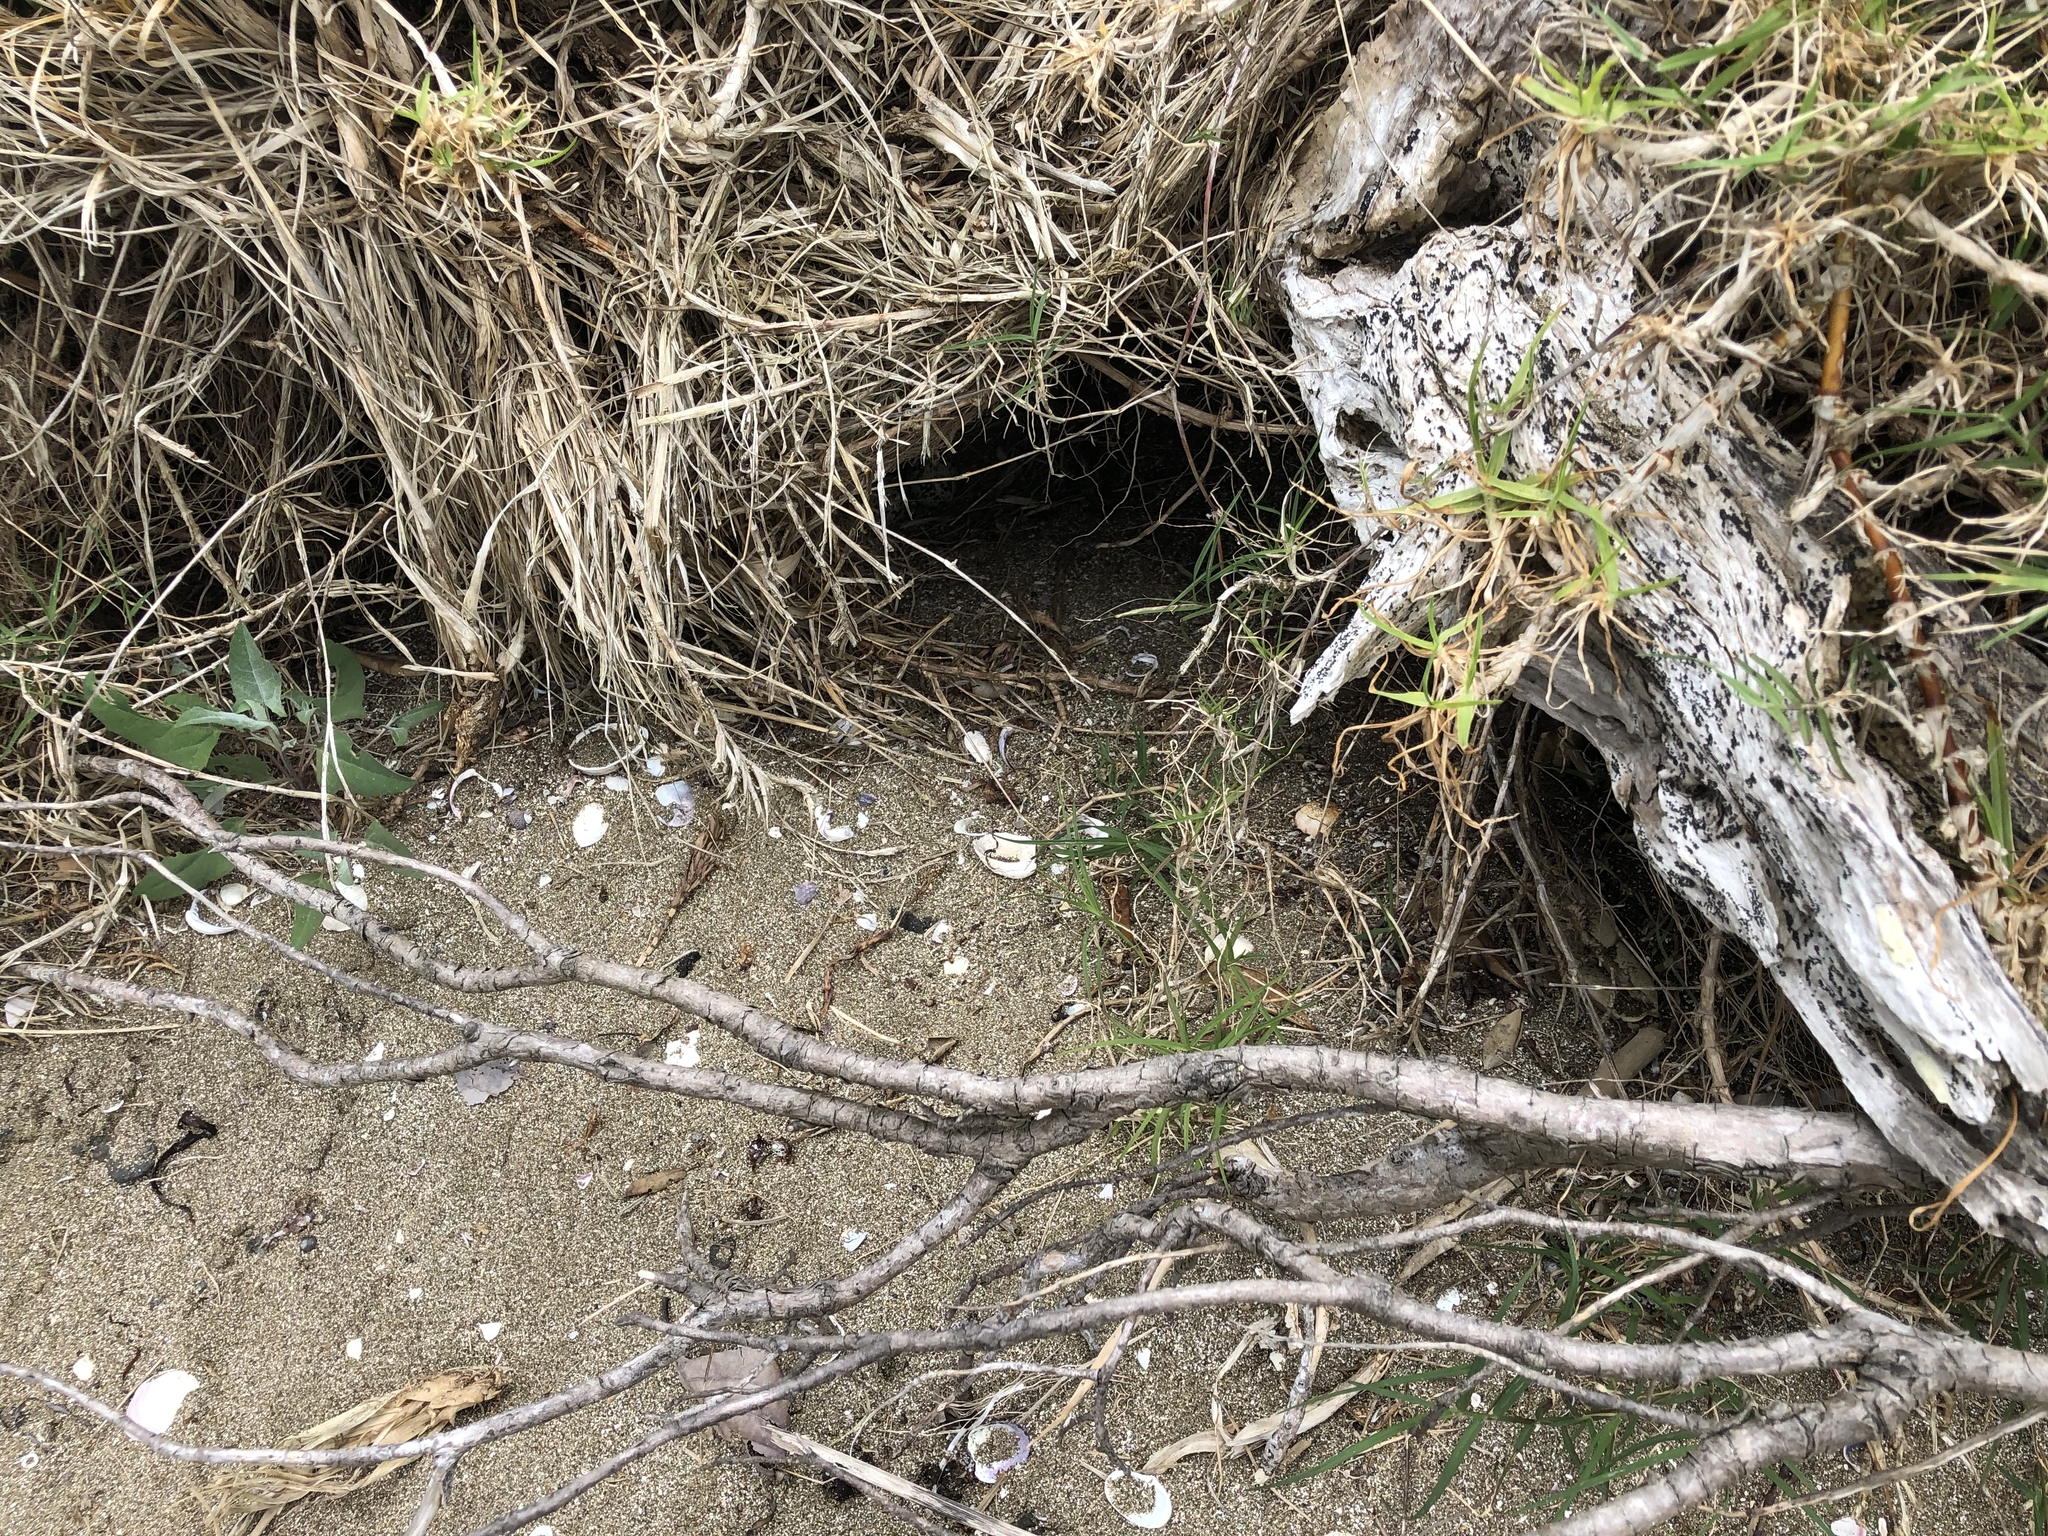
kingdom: Animalia
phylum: Chordata
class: Aves
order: Charadriiformes
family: Charadriidae
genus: Anarhynchus
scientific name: Anarhynchus
